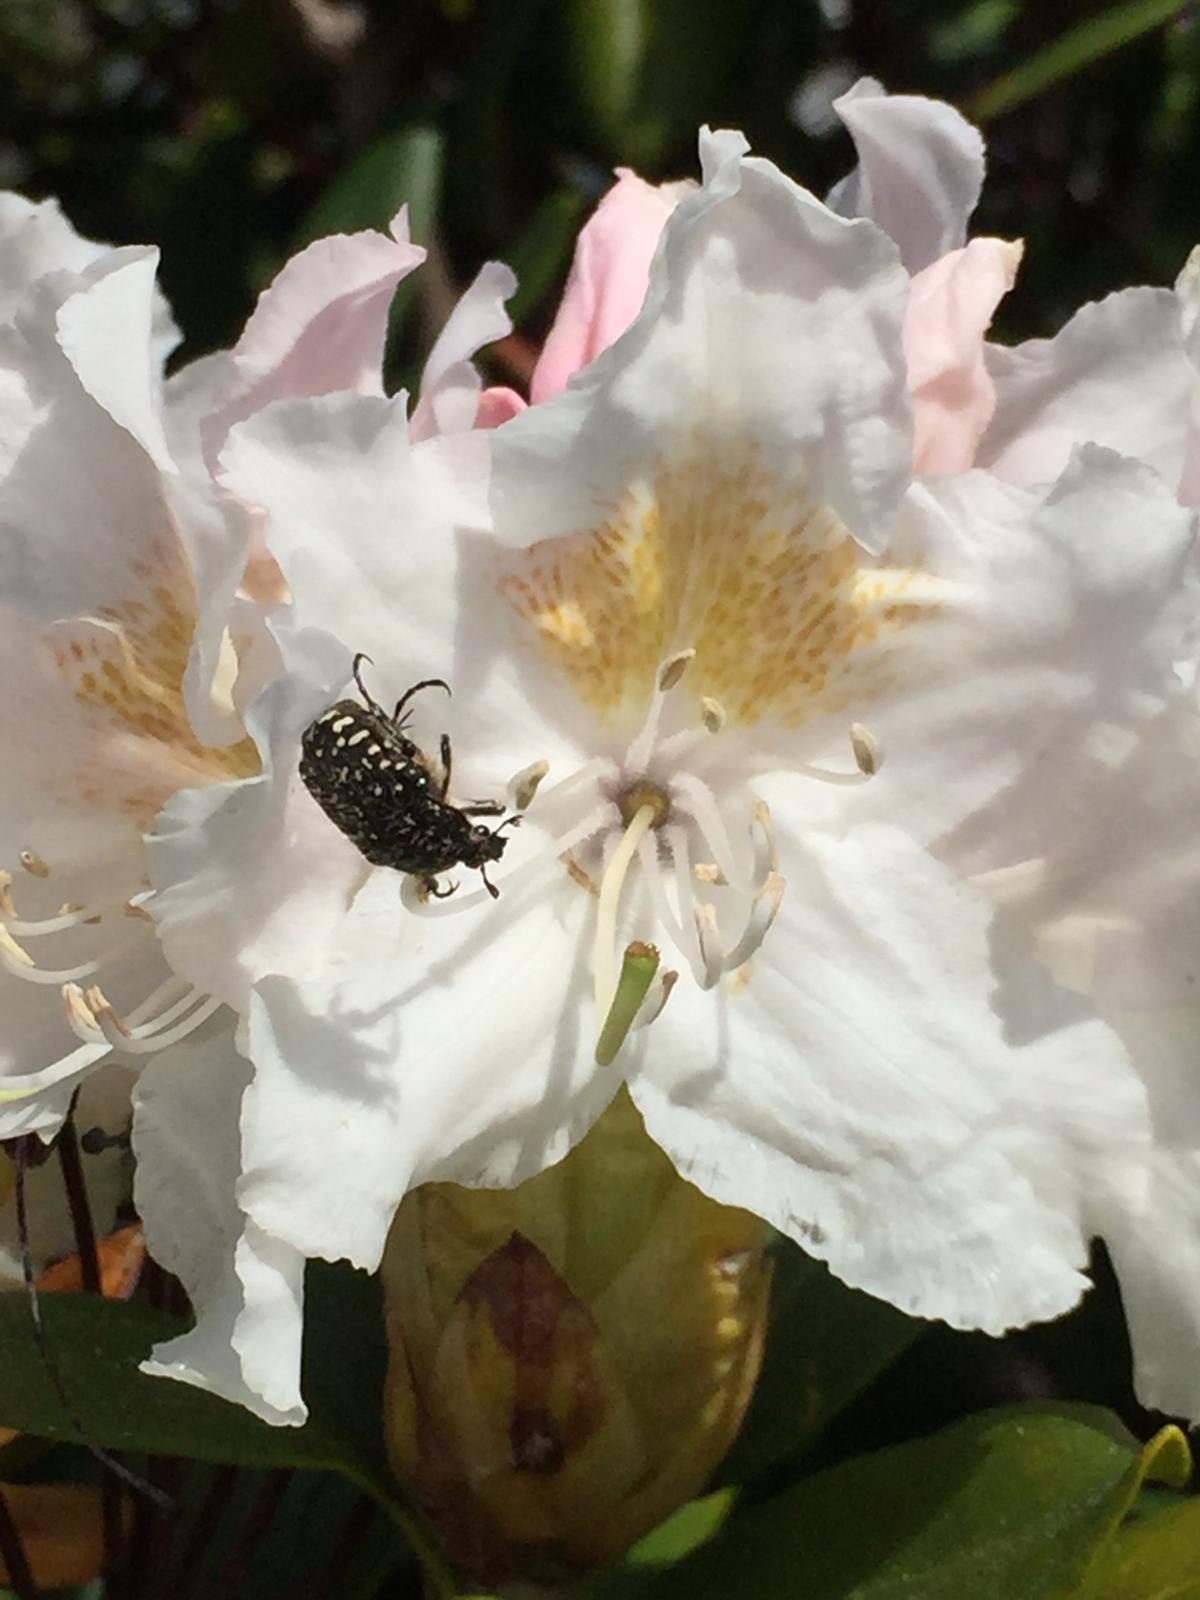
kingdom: Animalia
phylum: Arthropoda
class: Insecta
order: Coleoptera
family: Scarabaeidae
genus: Oxythyrea
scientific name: Oxythyrea funesta
